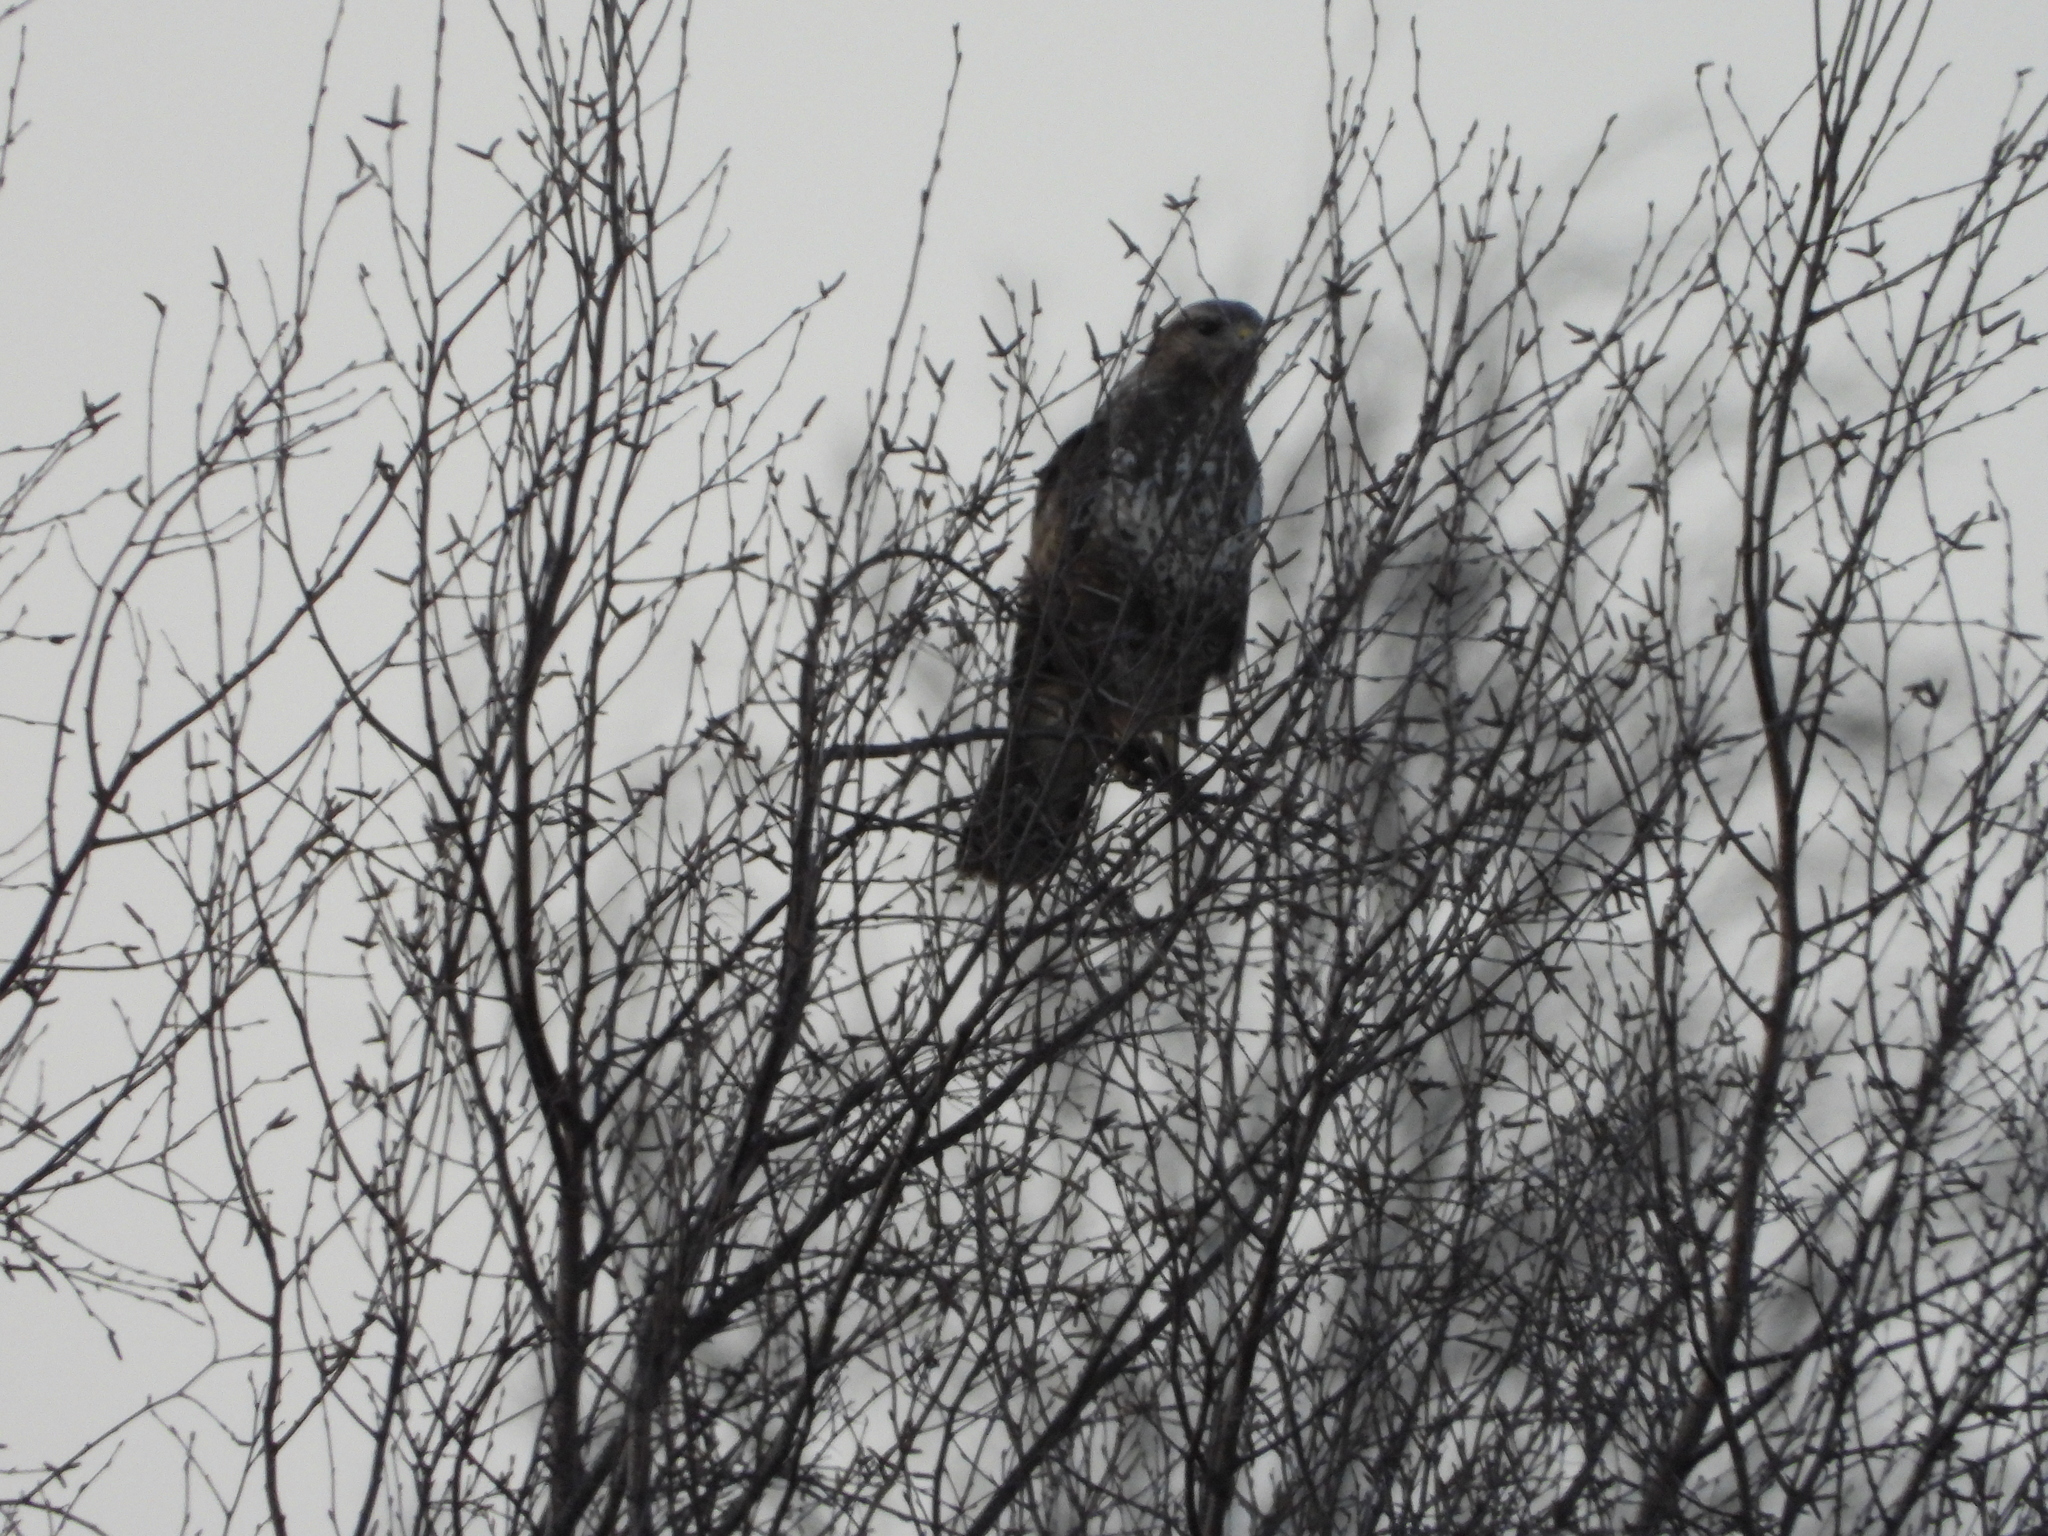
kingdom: Animalia
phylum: Chordata
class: Aves
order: Accipitriformes
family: Accipitridae
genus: Buteo
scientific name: Buteo buteo
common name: Common buzzard
